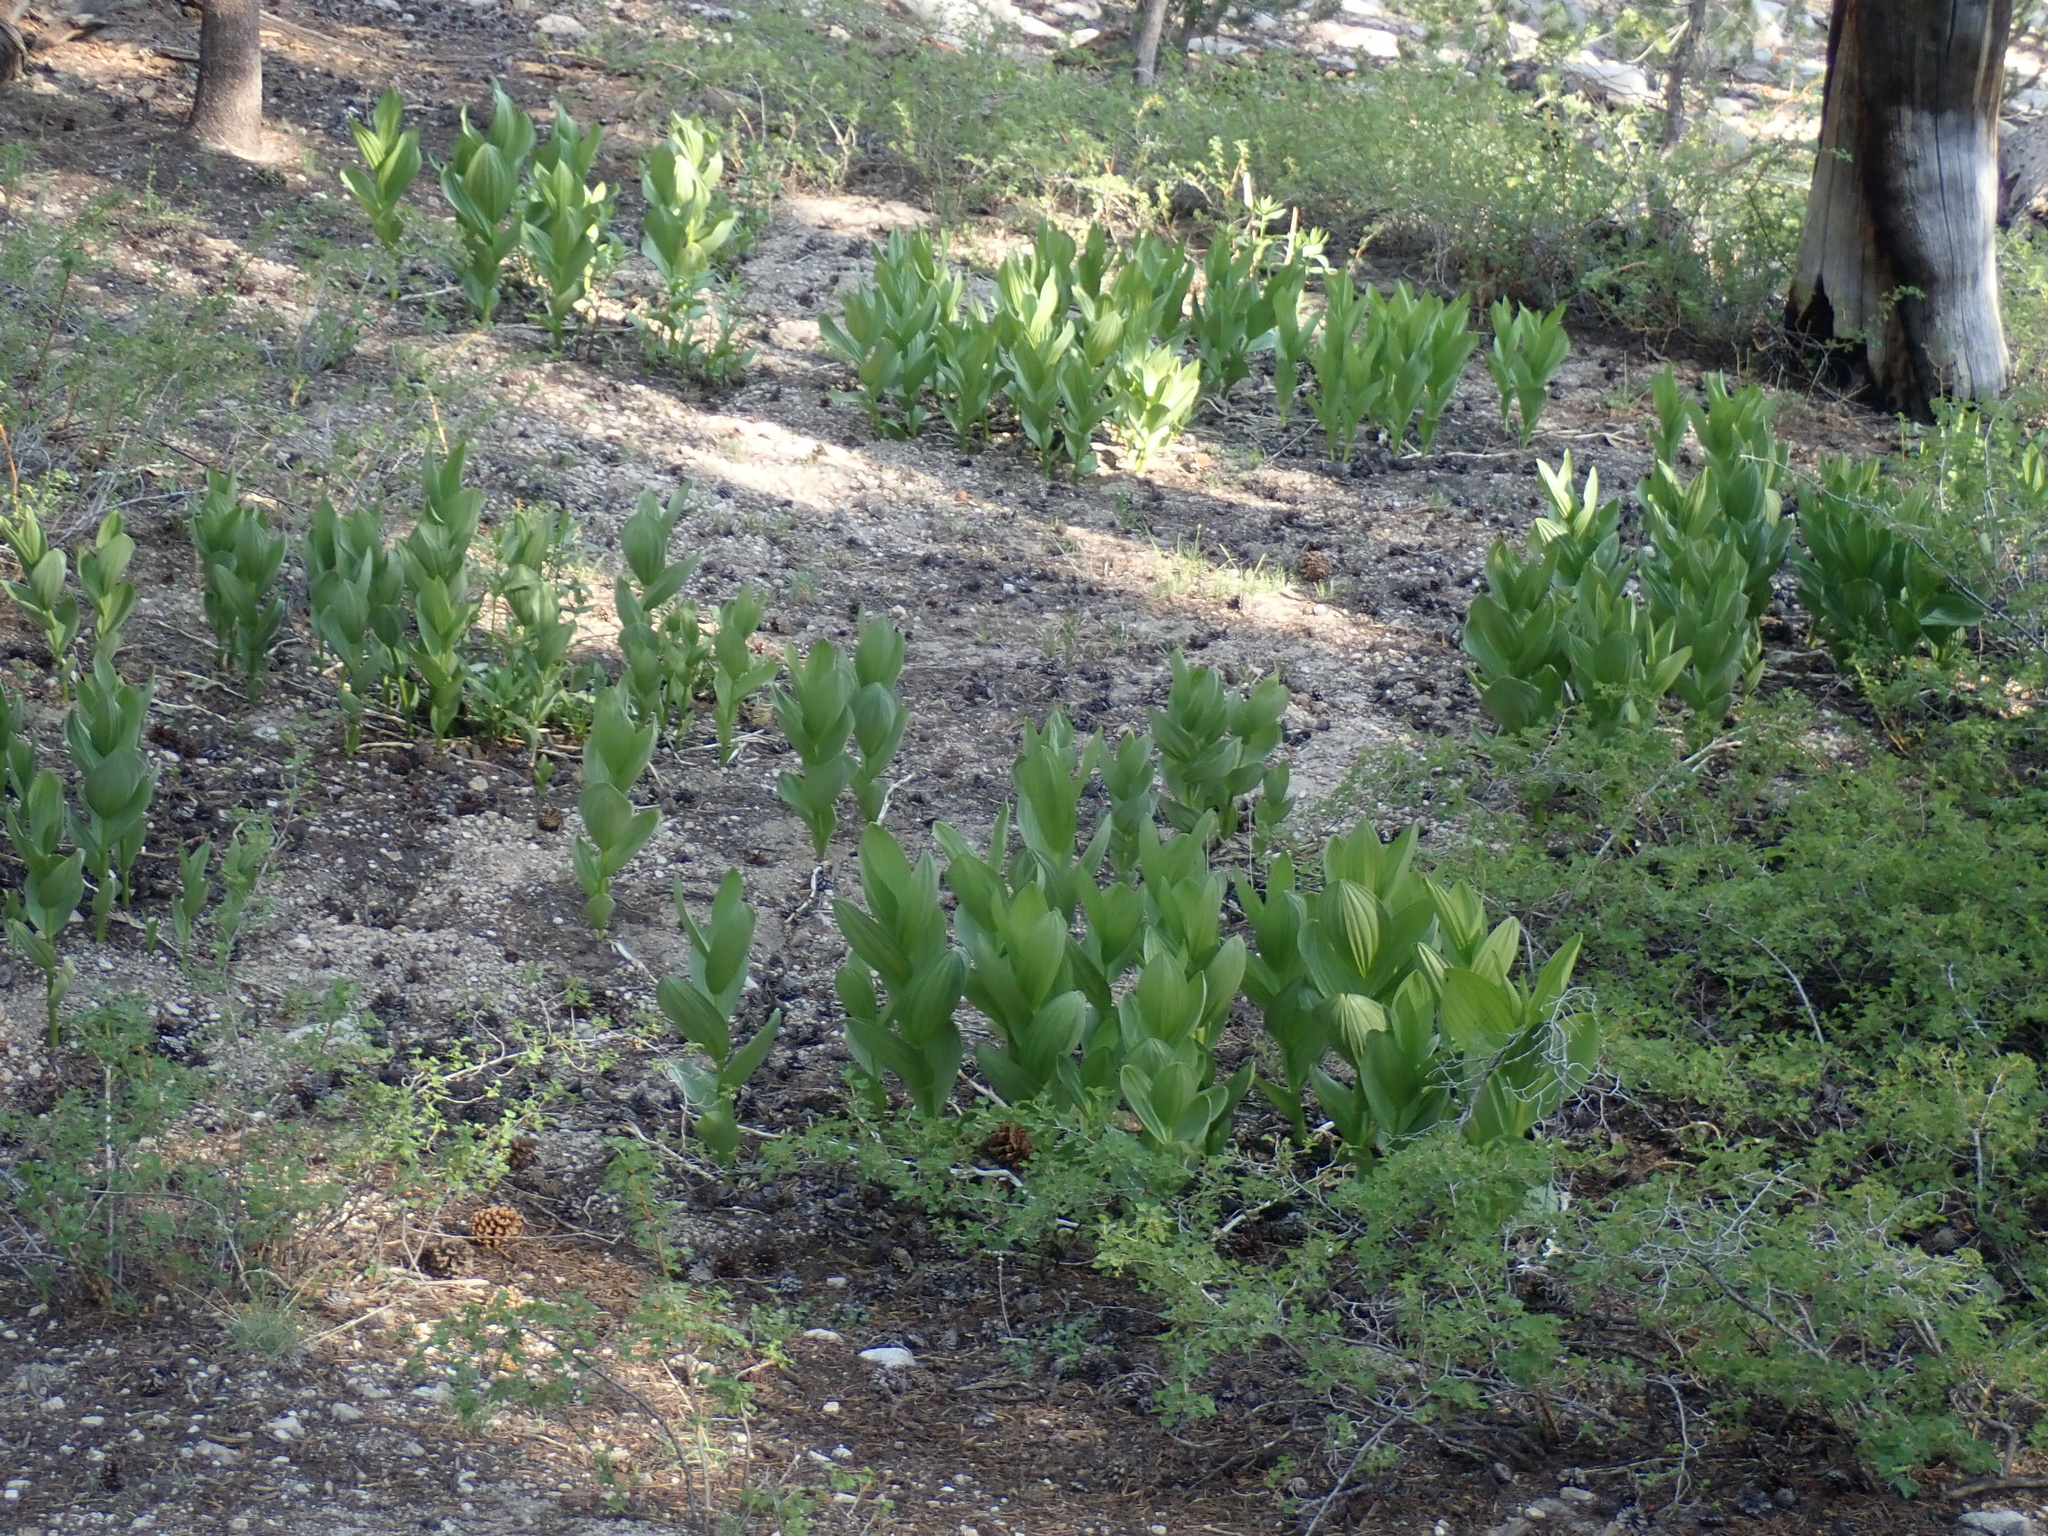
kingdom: Plantae
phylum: Tracheophyta
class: Liliopsida
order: Liliales
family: Melanthiaceae
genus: Veratrum
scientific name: Veratrum californicum
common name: California veratrum
